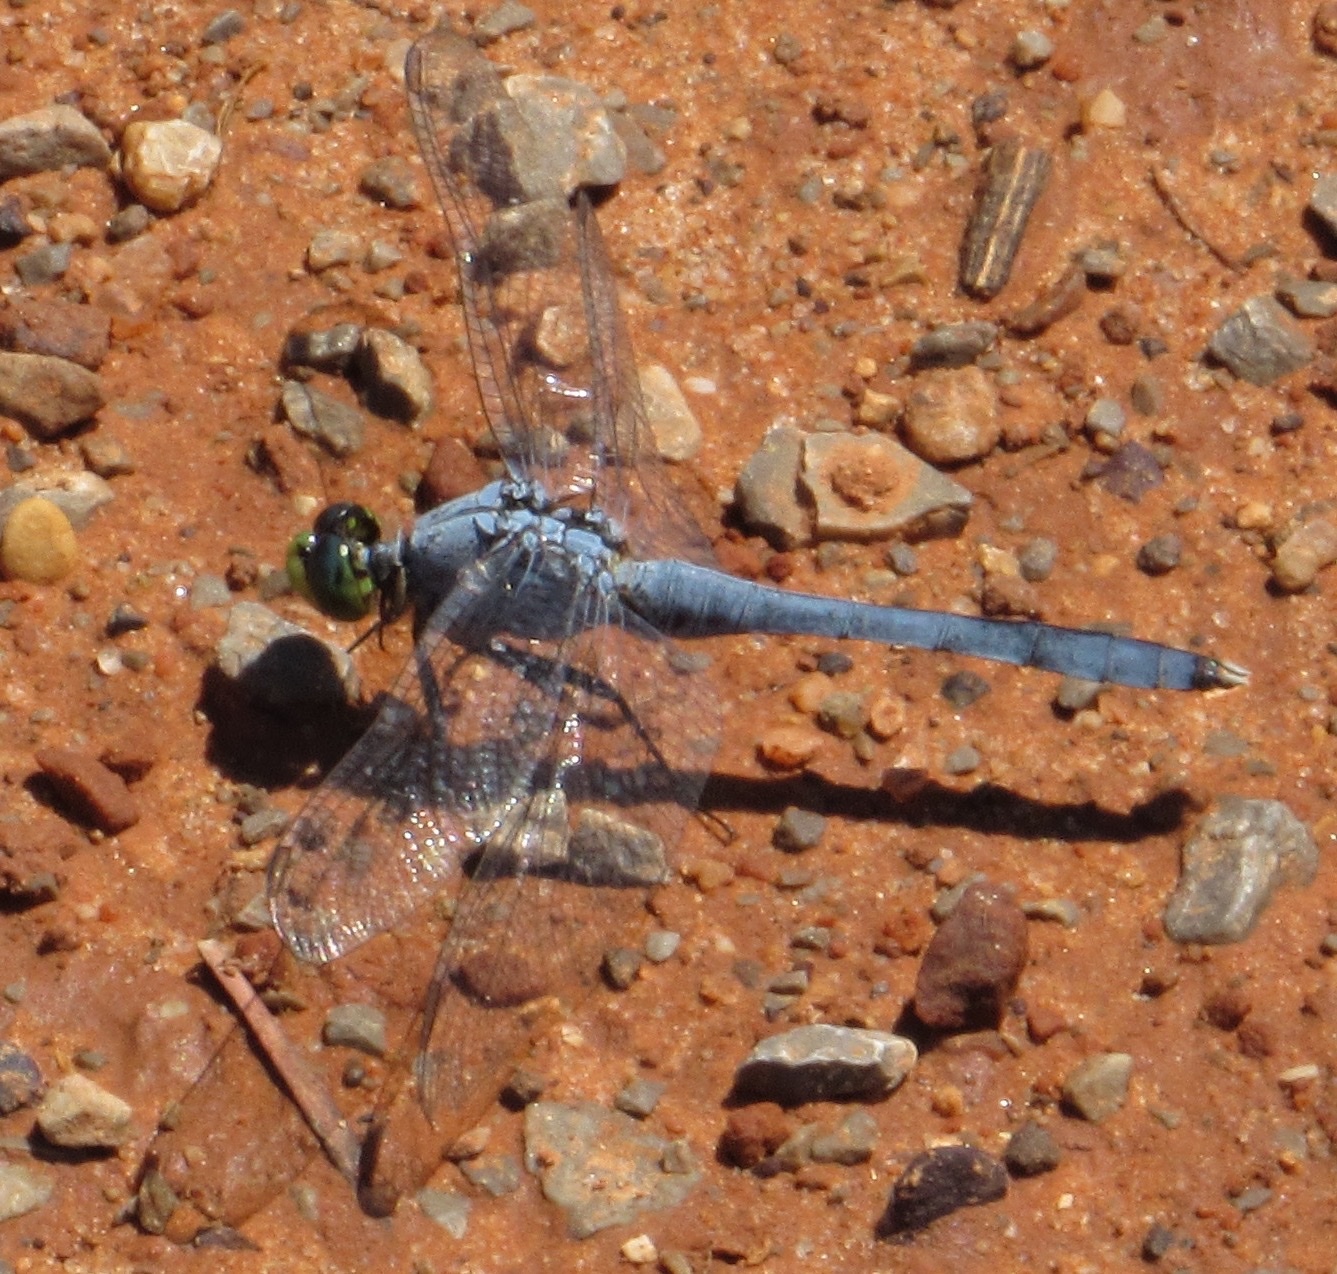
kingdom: Animalia
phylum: Arthropoda
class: Insecta
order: Odonata
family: Libellulidae
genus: Erythemis
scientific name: Erythemis simplicicollis
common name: Eastern pondhawk
